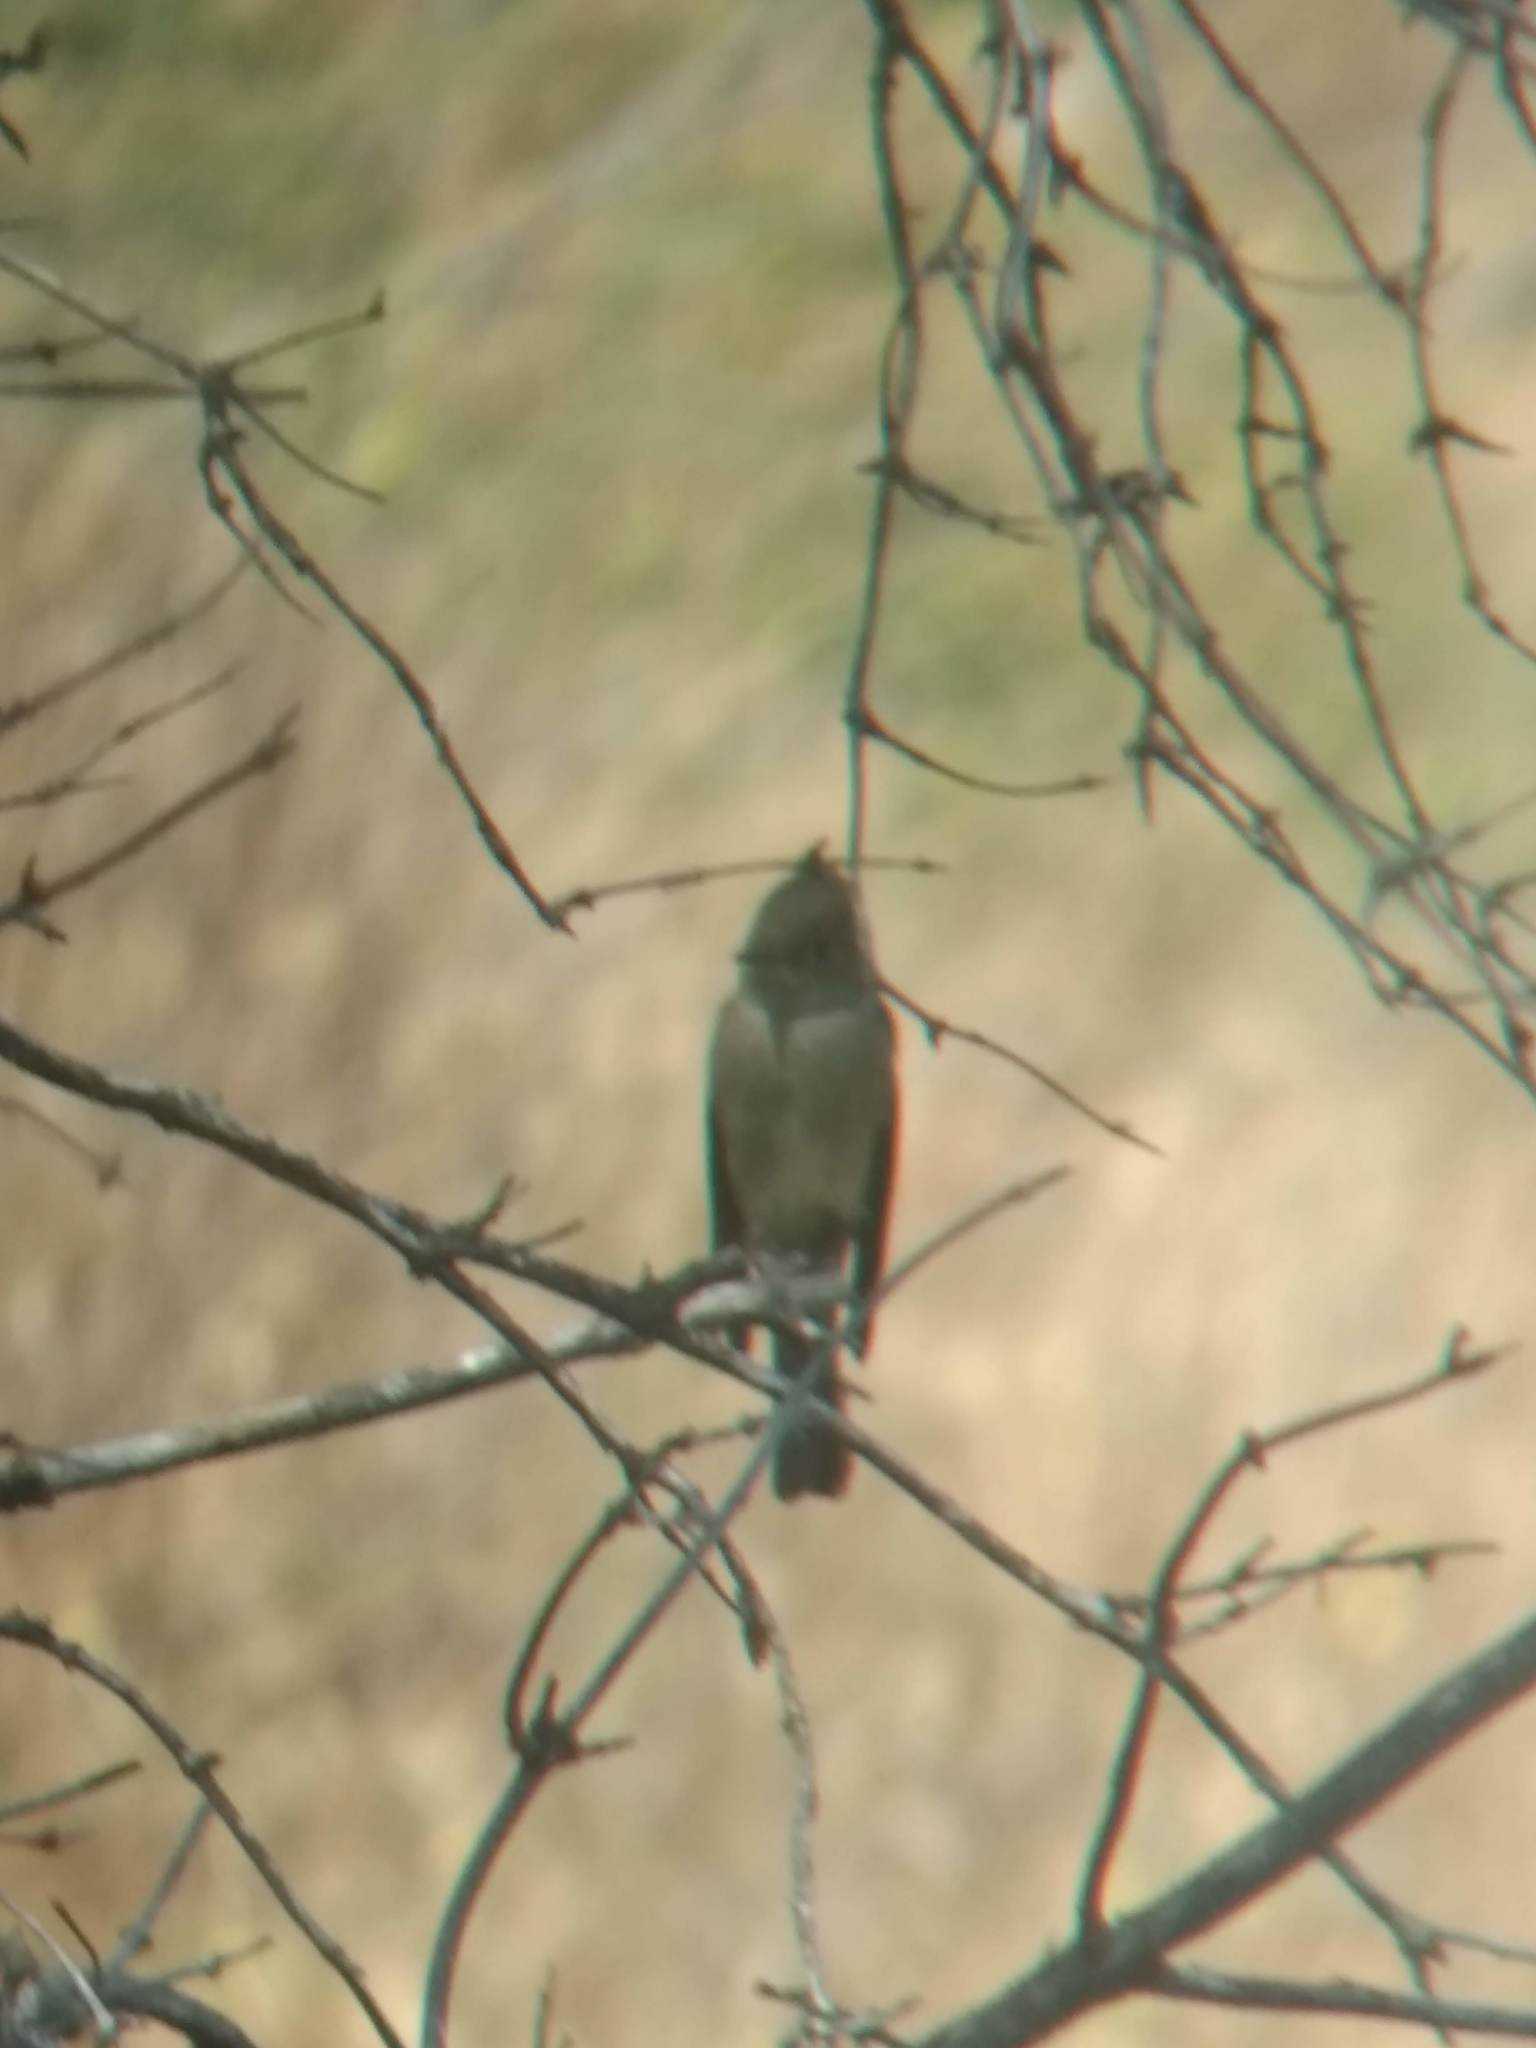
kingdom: Animalia
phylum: Chordata
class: Aves
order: Passeriformes
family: Tyrannidae
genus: Contopus
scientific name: Contopus sordidulus
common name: Western wood-pewee
